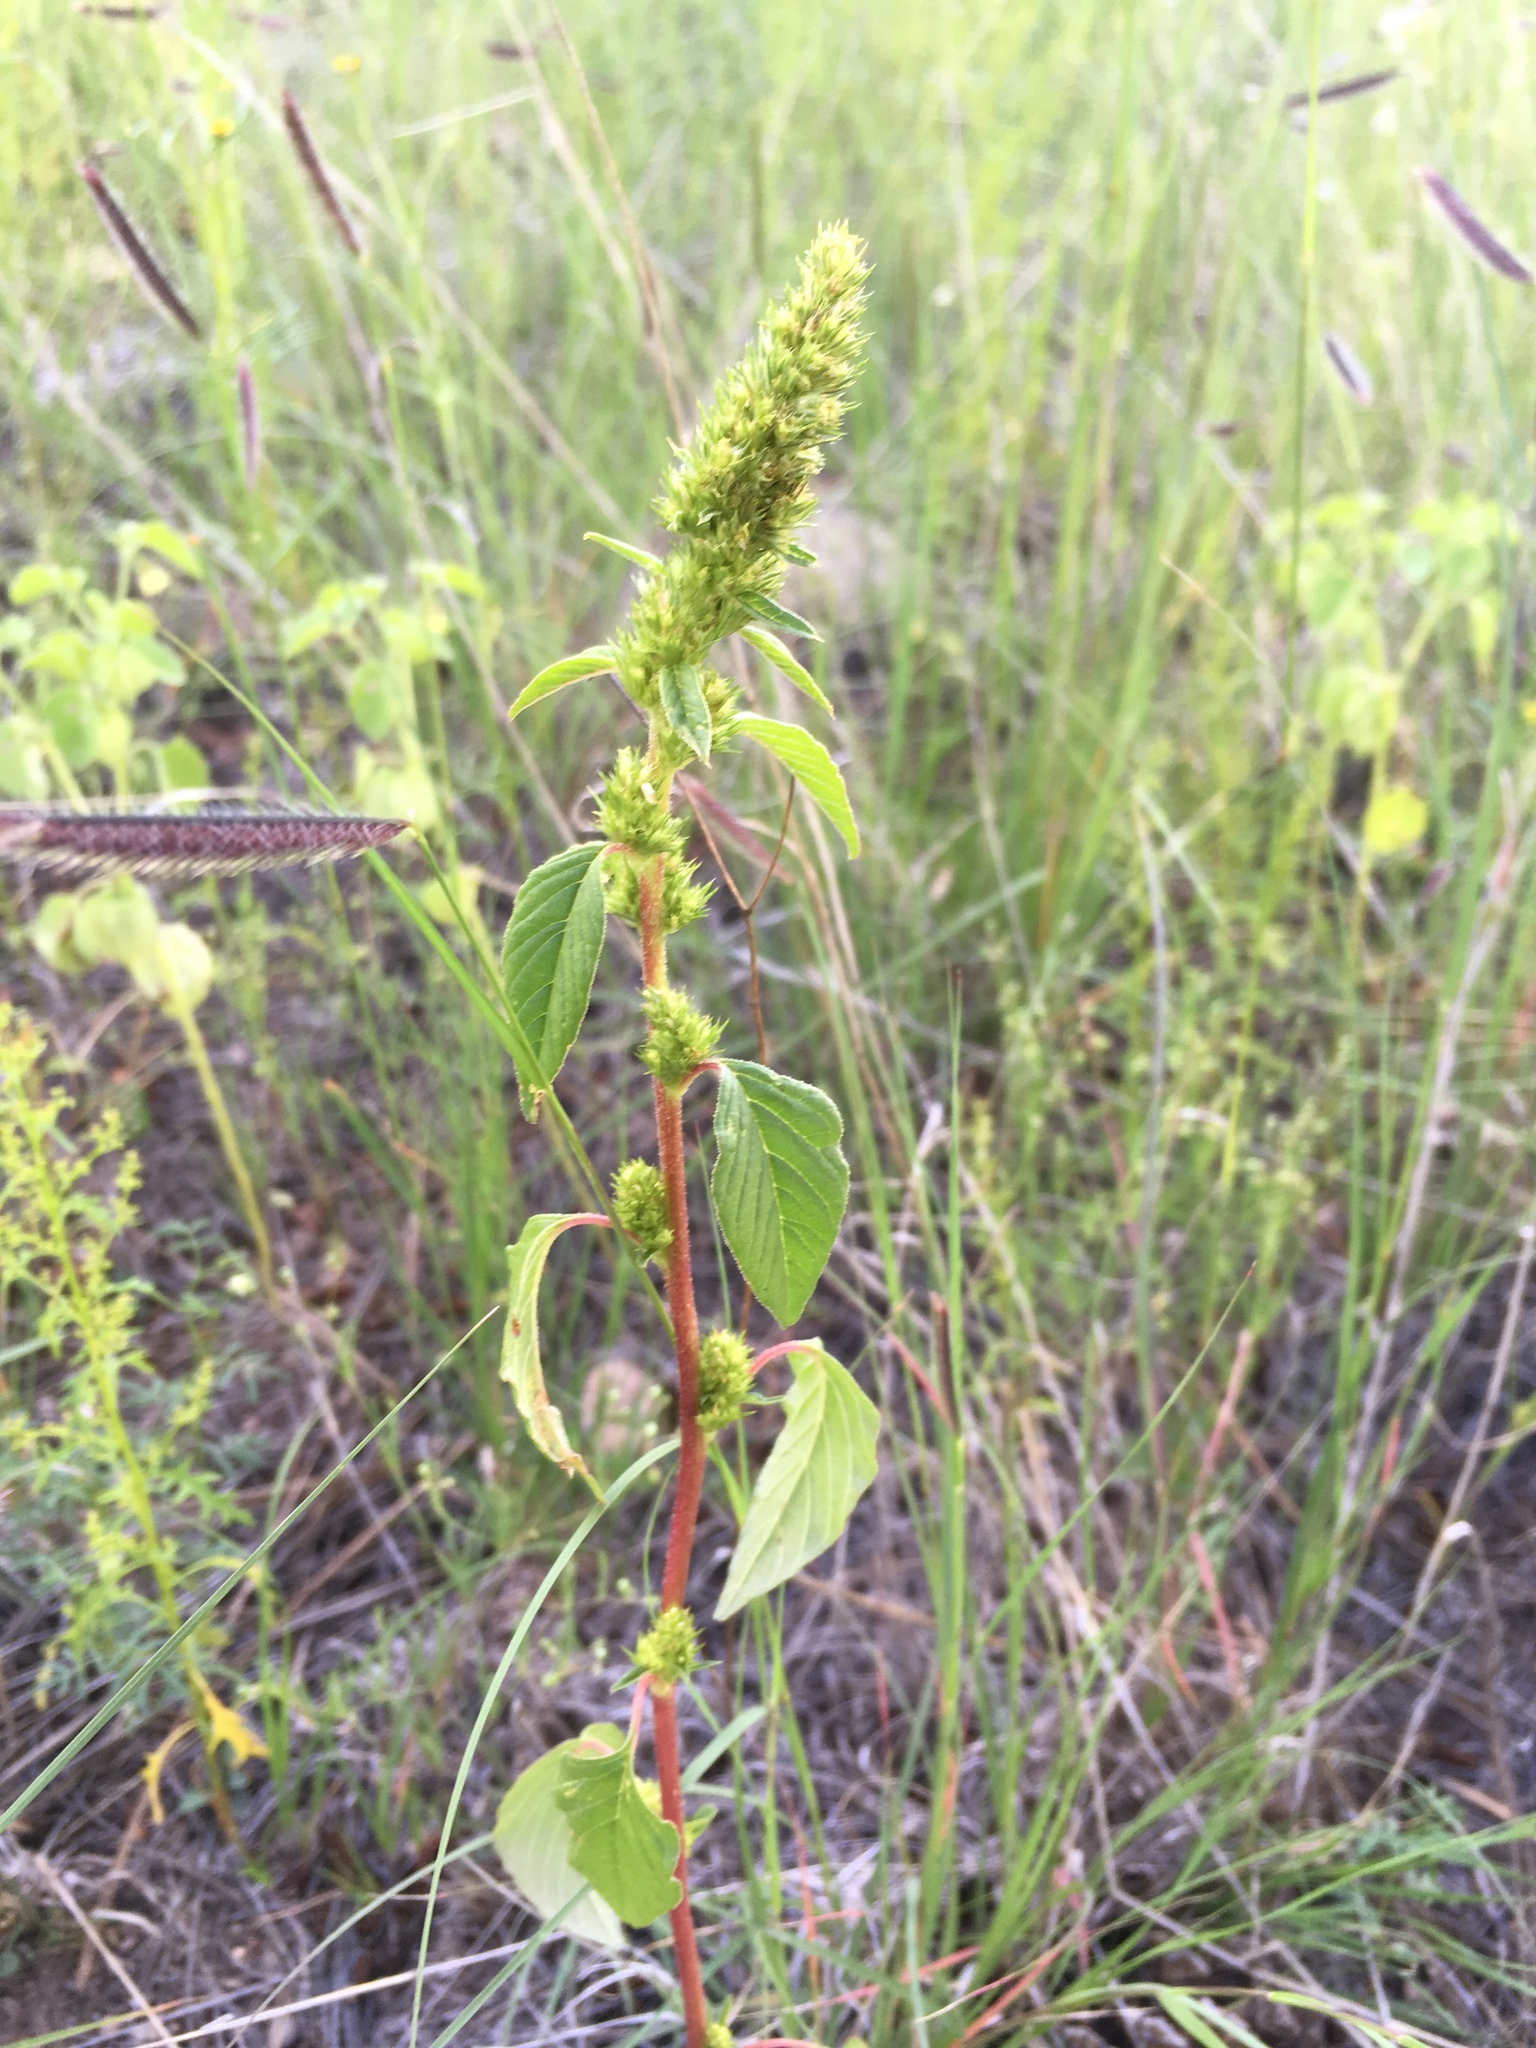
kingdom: Plantae
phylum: Tracheophyta
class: Magnoliopsida
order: Caryophyllales
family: Amaranthaceae
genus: Amaranthus
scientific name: Amaranthus powellii
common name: Powell's amaranth
